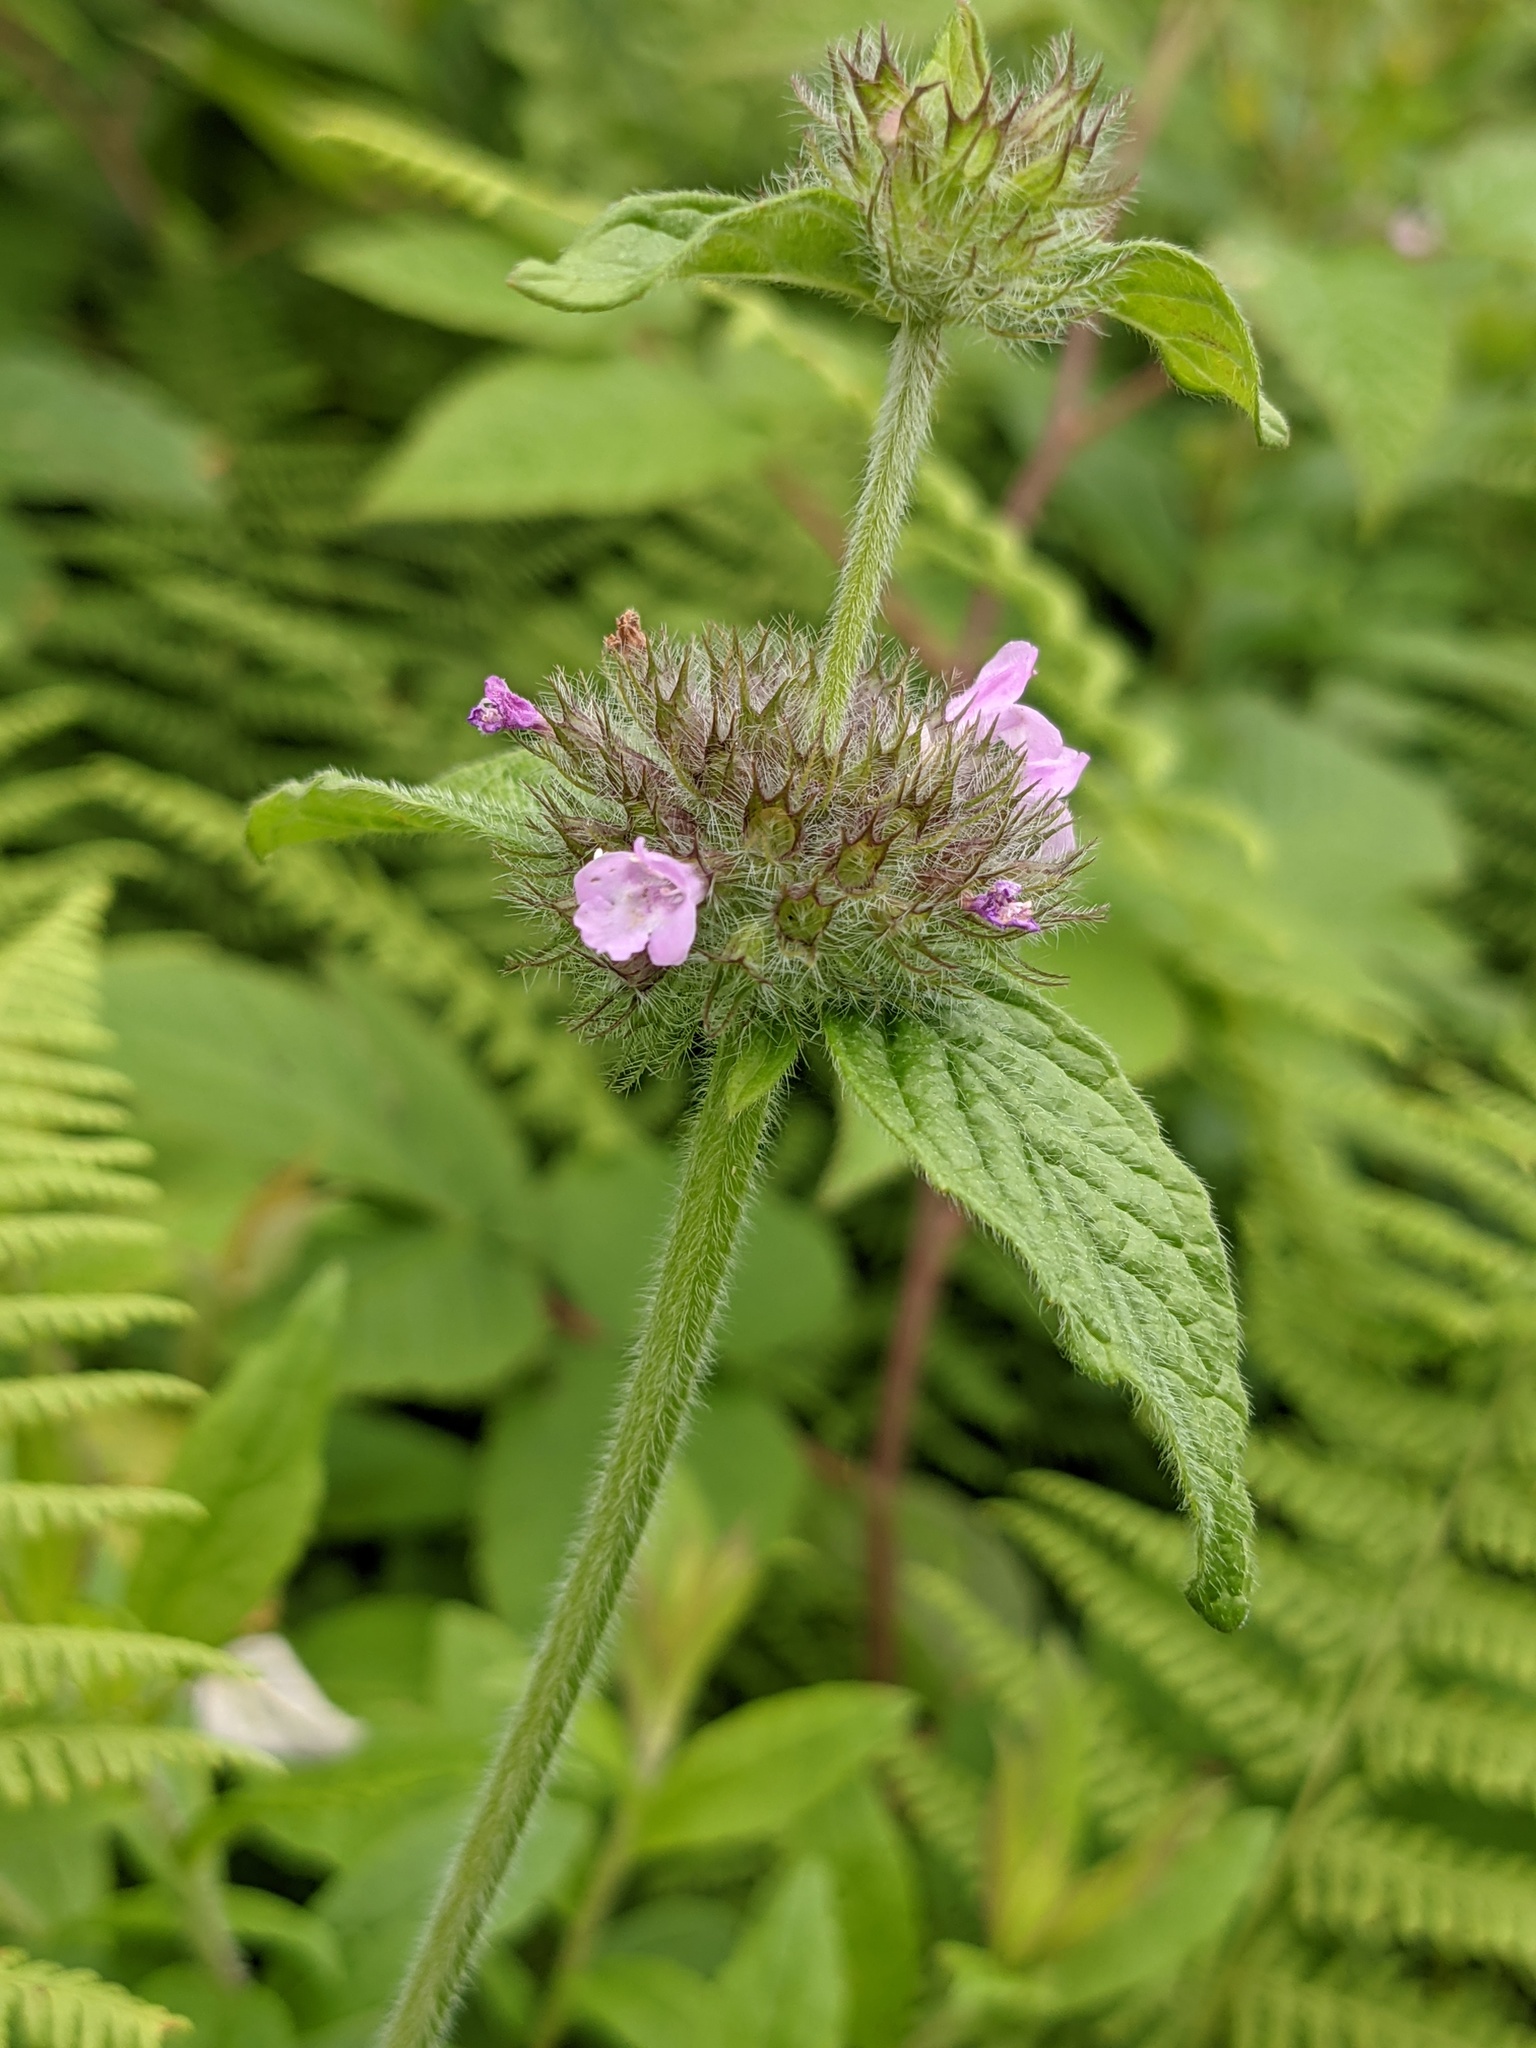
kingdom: Plantae
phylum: Tracheophyta
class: Magnoliopsida
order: Lamiales
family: Lamiaceae
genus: Clinopodium
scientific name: Clinopodium vulgare
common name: Wild basil
